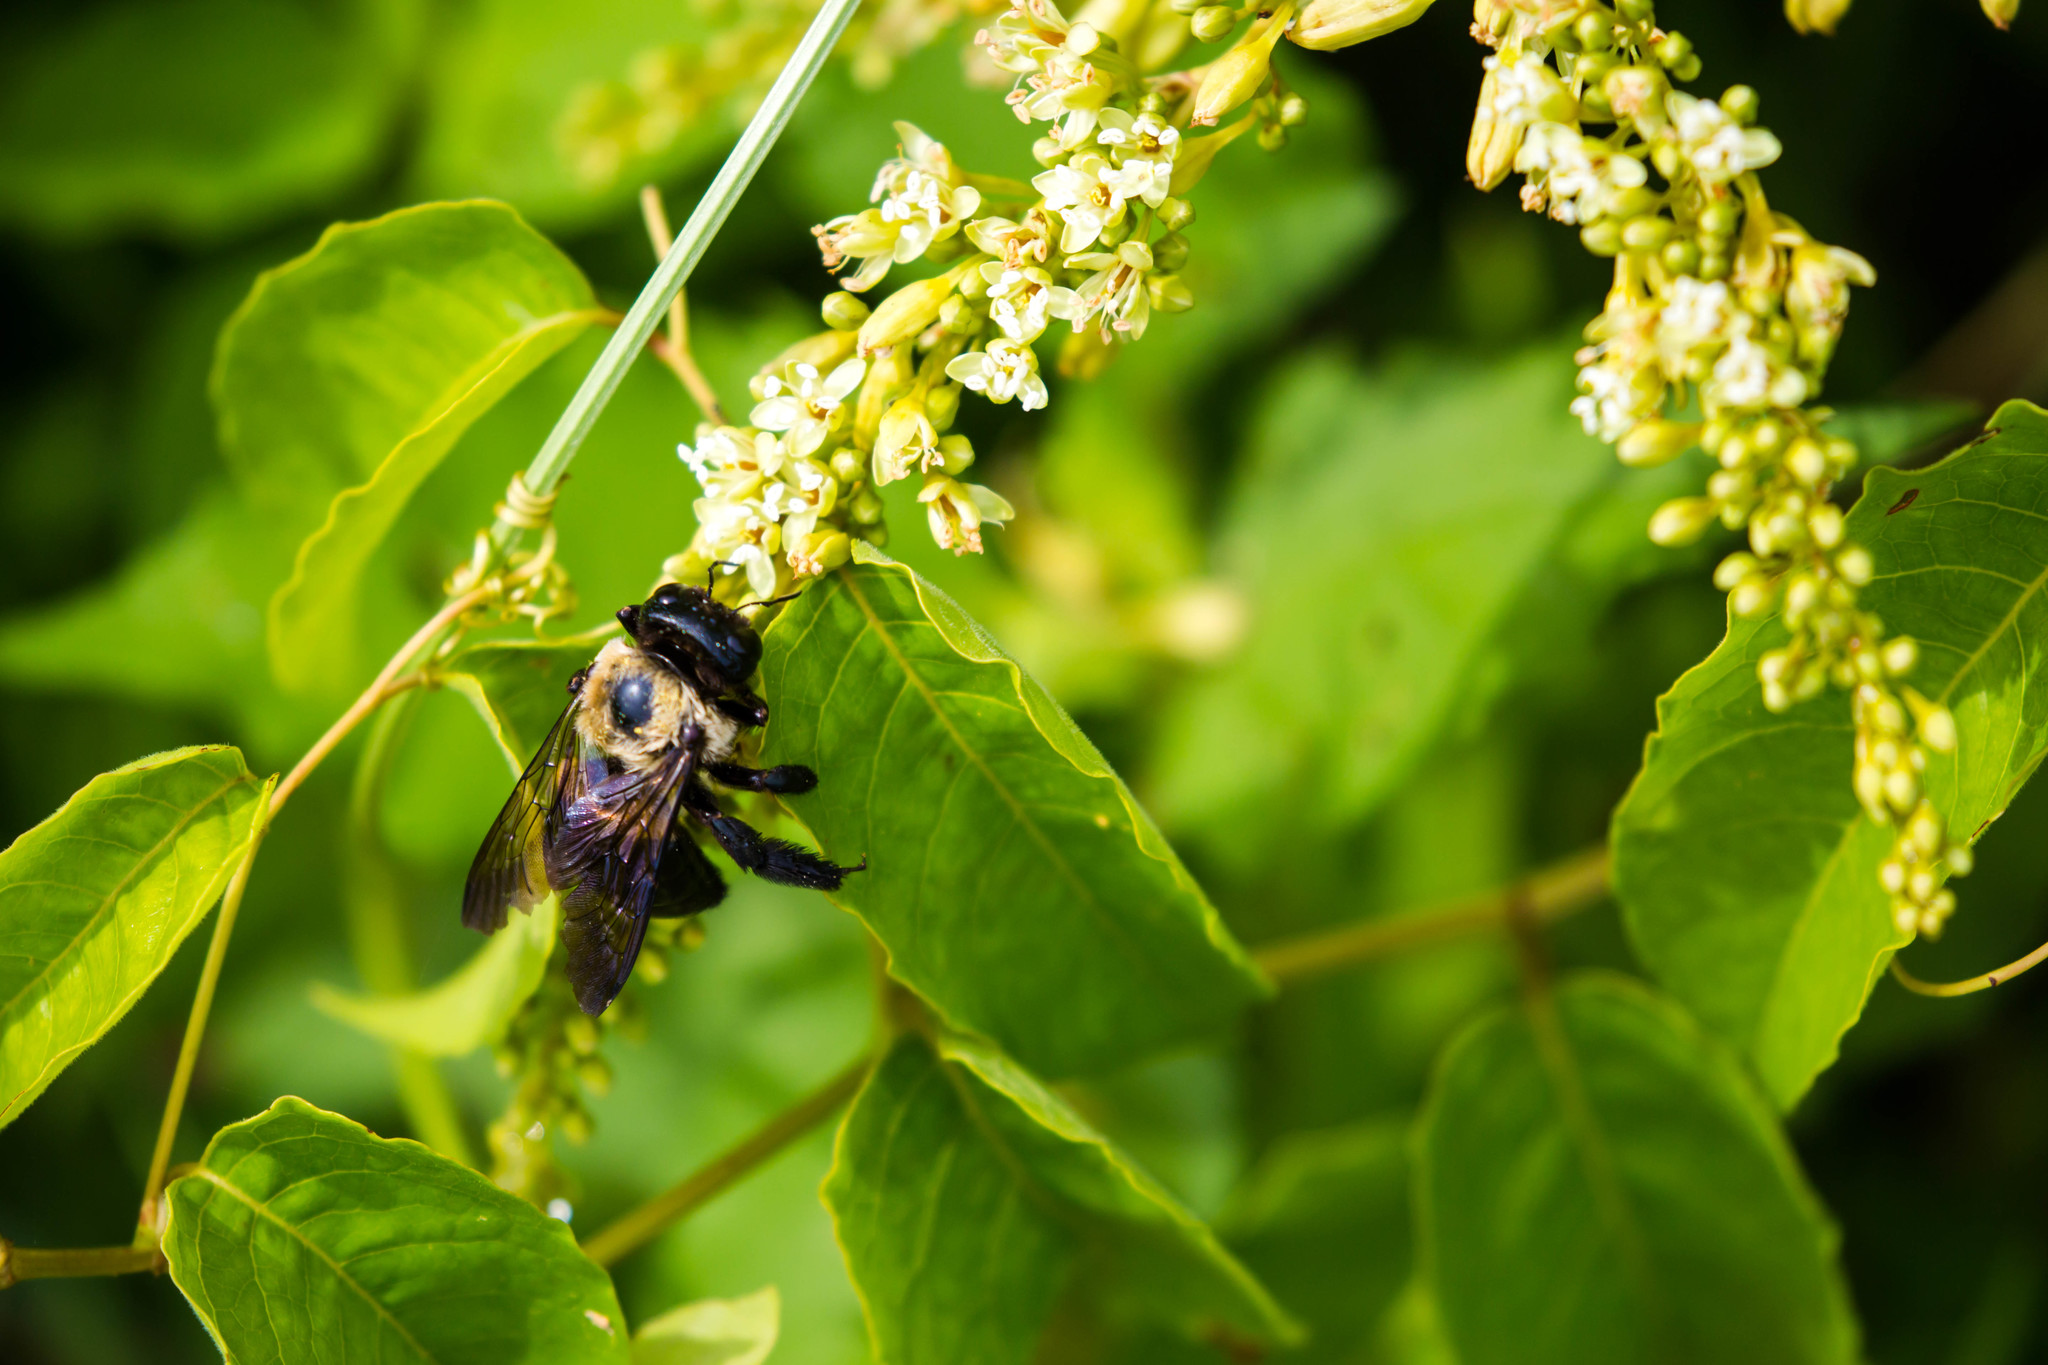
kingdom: Animalia
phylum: Arthropoda
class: Insecta
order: Hymenoptera
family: Apidae
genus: Xylocopa
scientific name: Xylocopa virginica
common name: Carpenter bee
